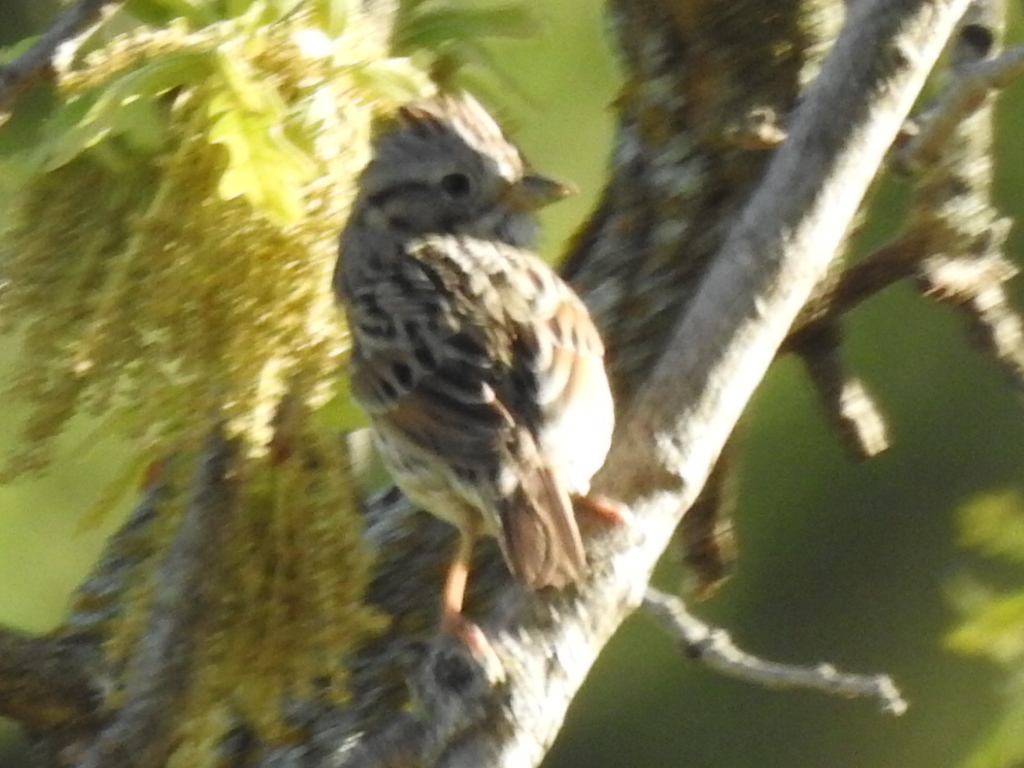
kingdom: Animalia
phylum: Chordata
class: Aves
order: Passeriformes
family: Passerellidae
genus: Melospiza
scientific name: Melospiza lincolnii
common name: Lincoln's sparrow
